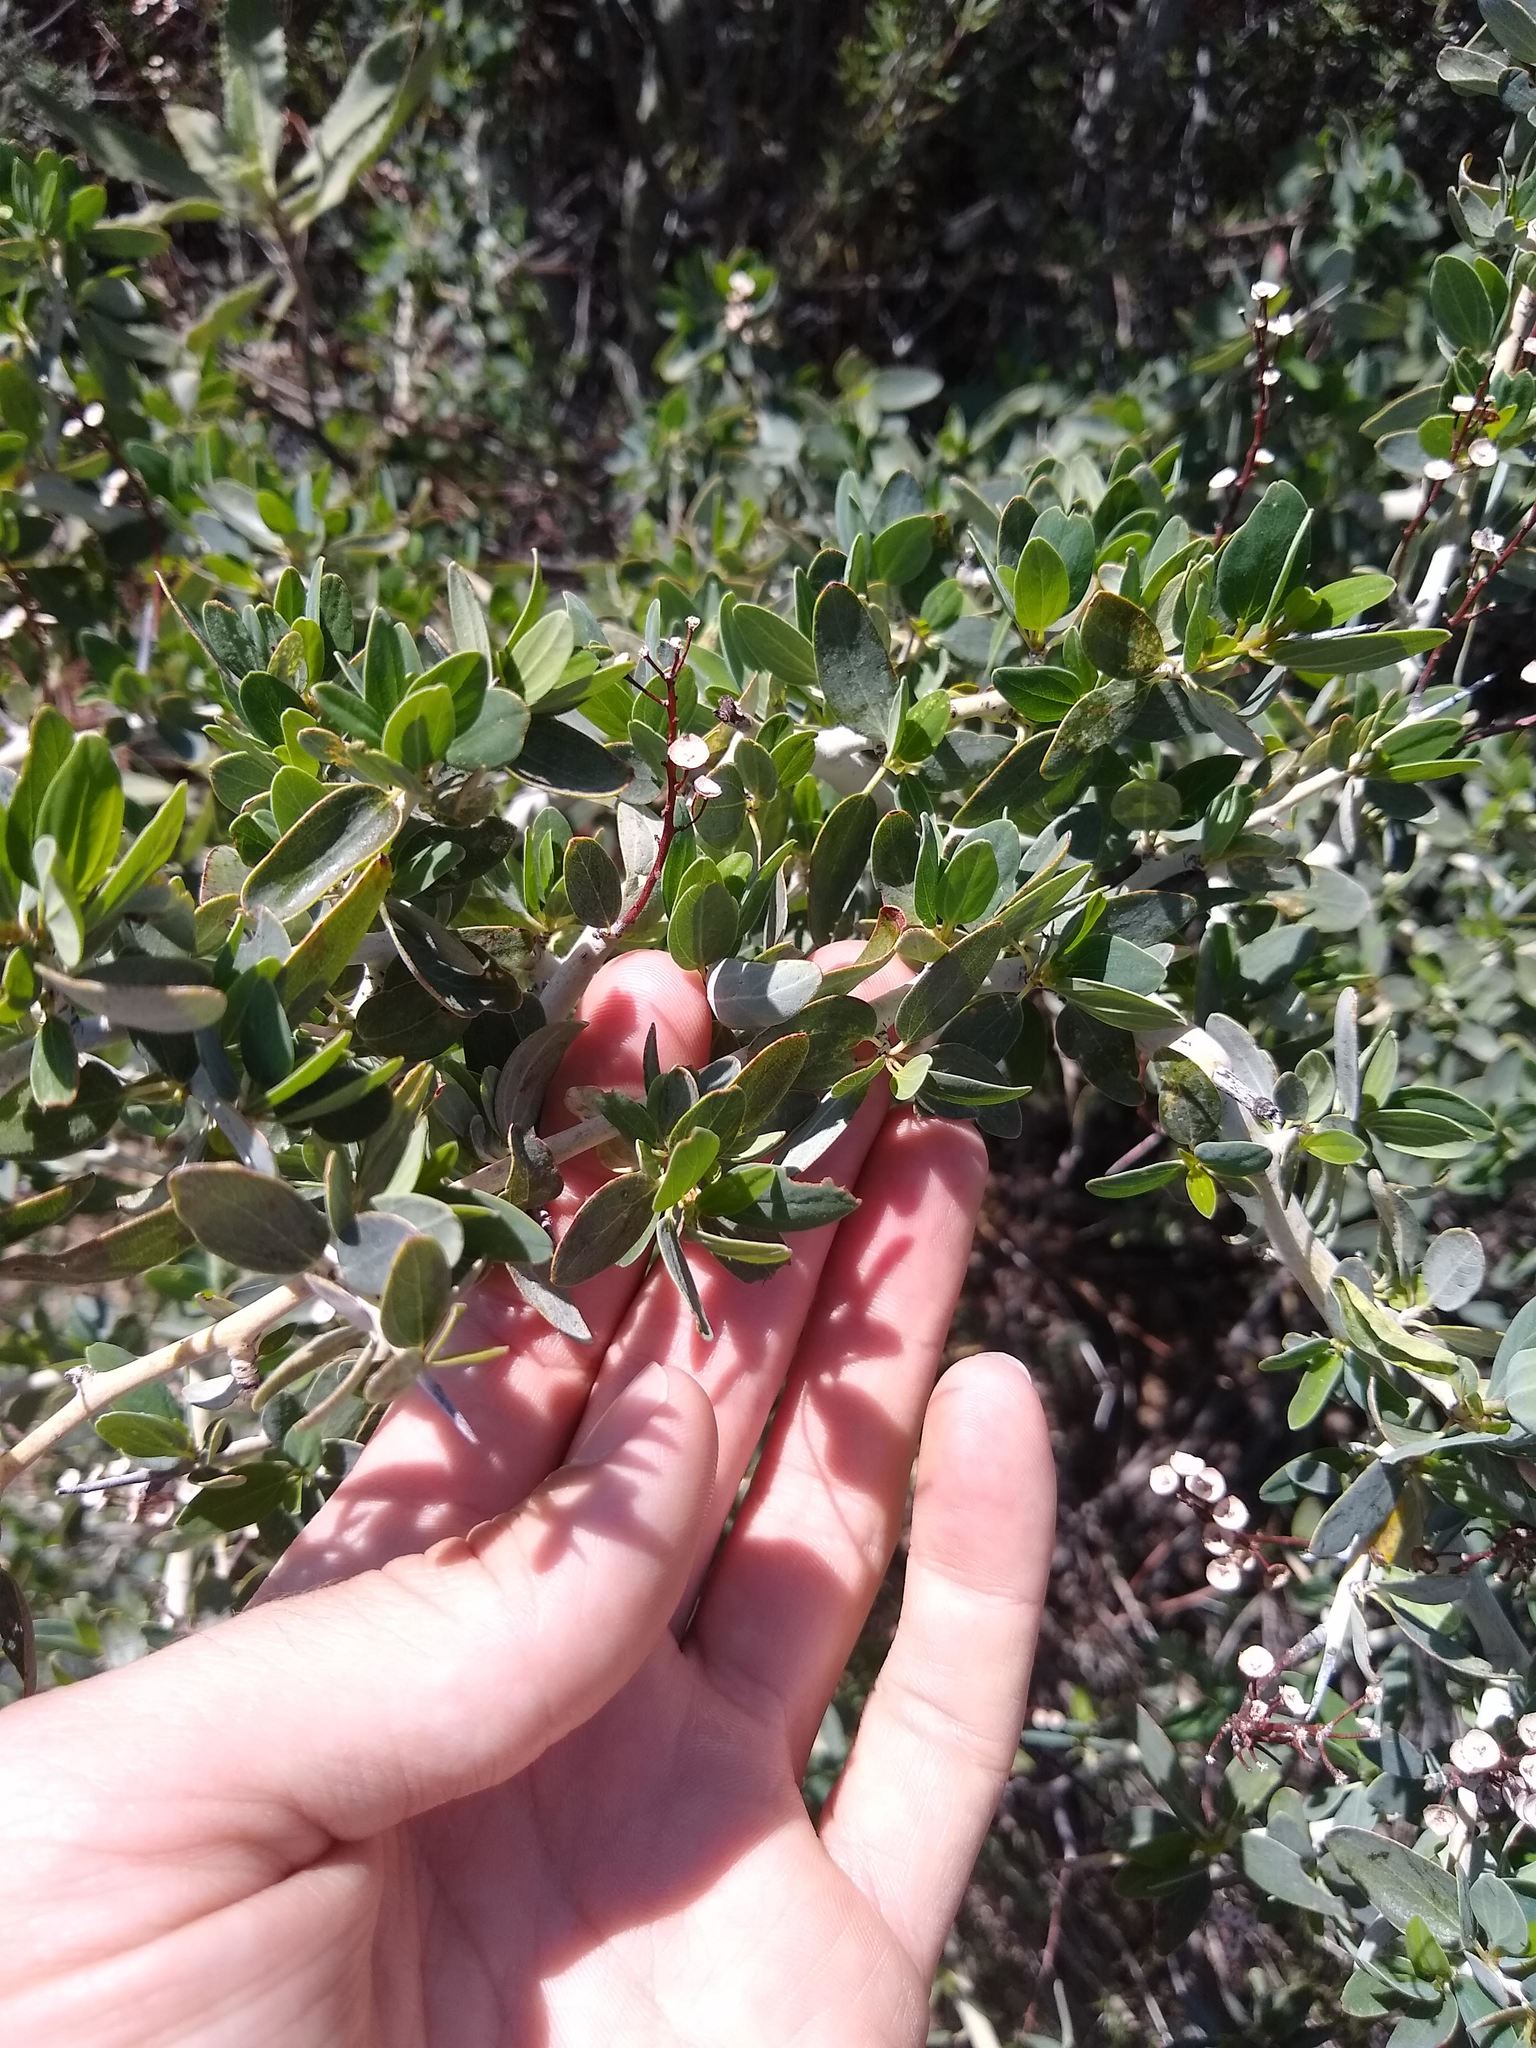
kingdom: Plantae
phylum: Tracheophyta
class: Magnoliopsida
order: Rosales
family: Rhamnaceae
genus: Ceanothus
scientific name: Ceanothus leucodermis
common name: Chaparral whitethorn
